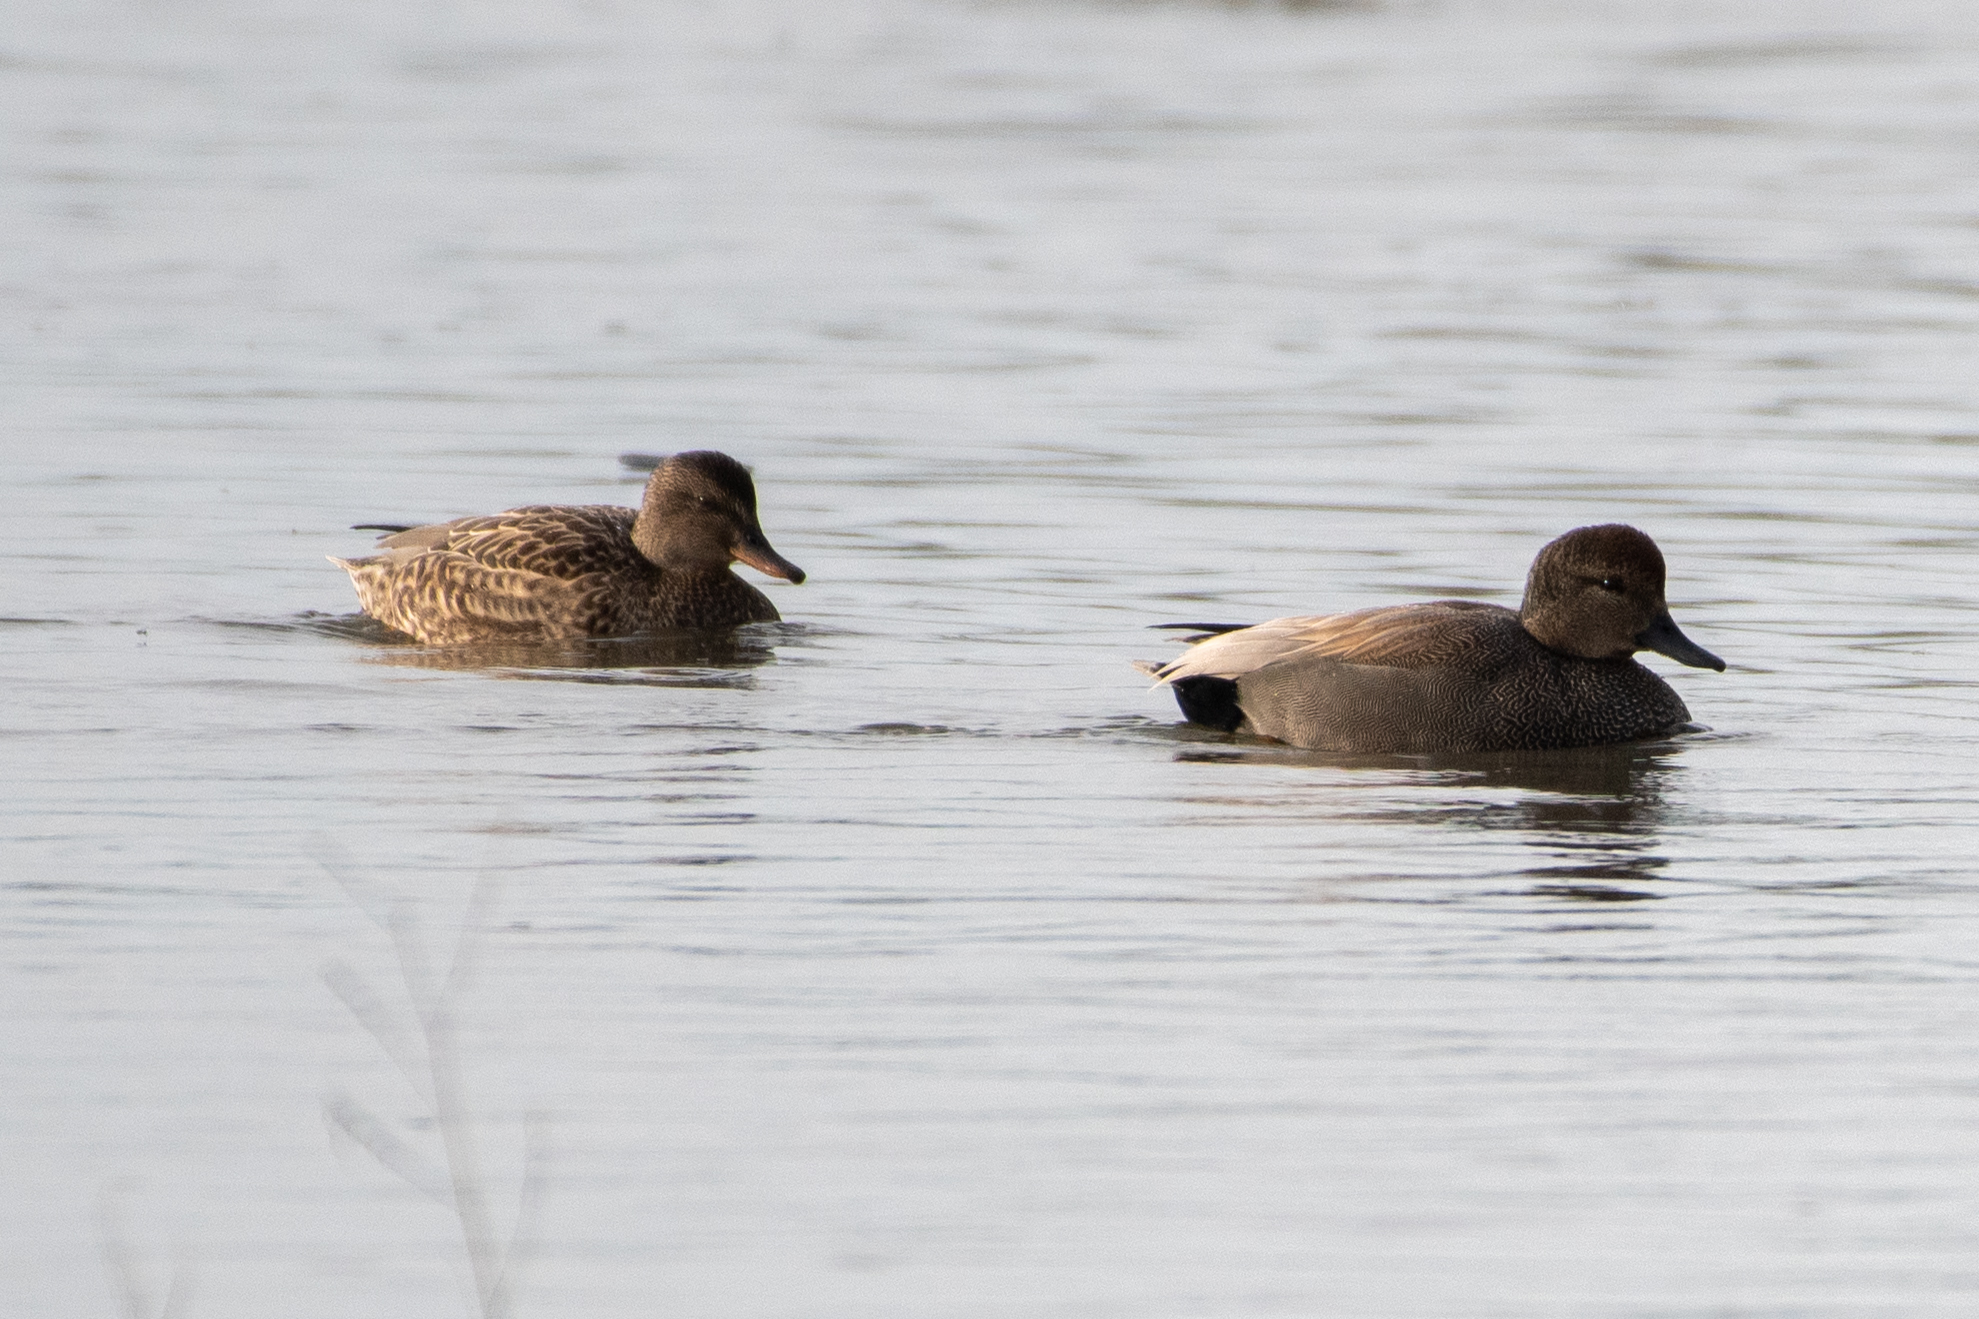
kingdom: Animalia
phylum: Chordata
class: Aves
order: Anseriformes
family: Anatidae
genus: Mareca
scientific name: Mareca strepera
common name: Gadwall
